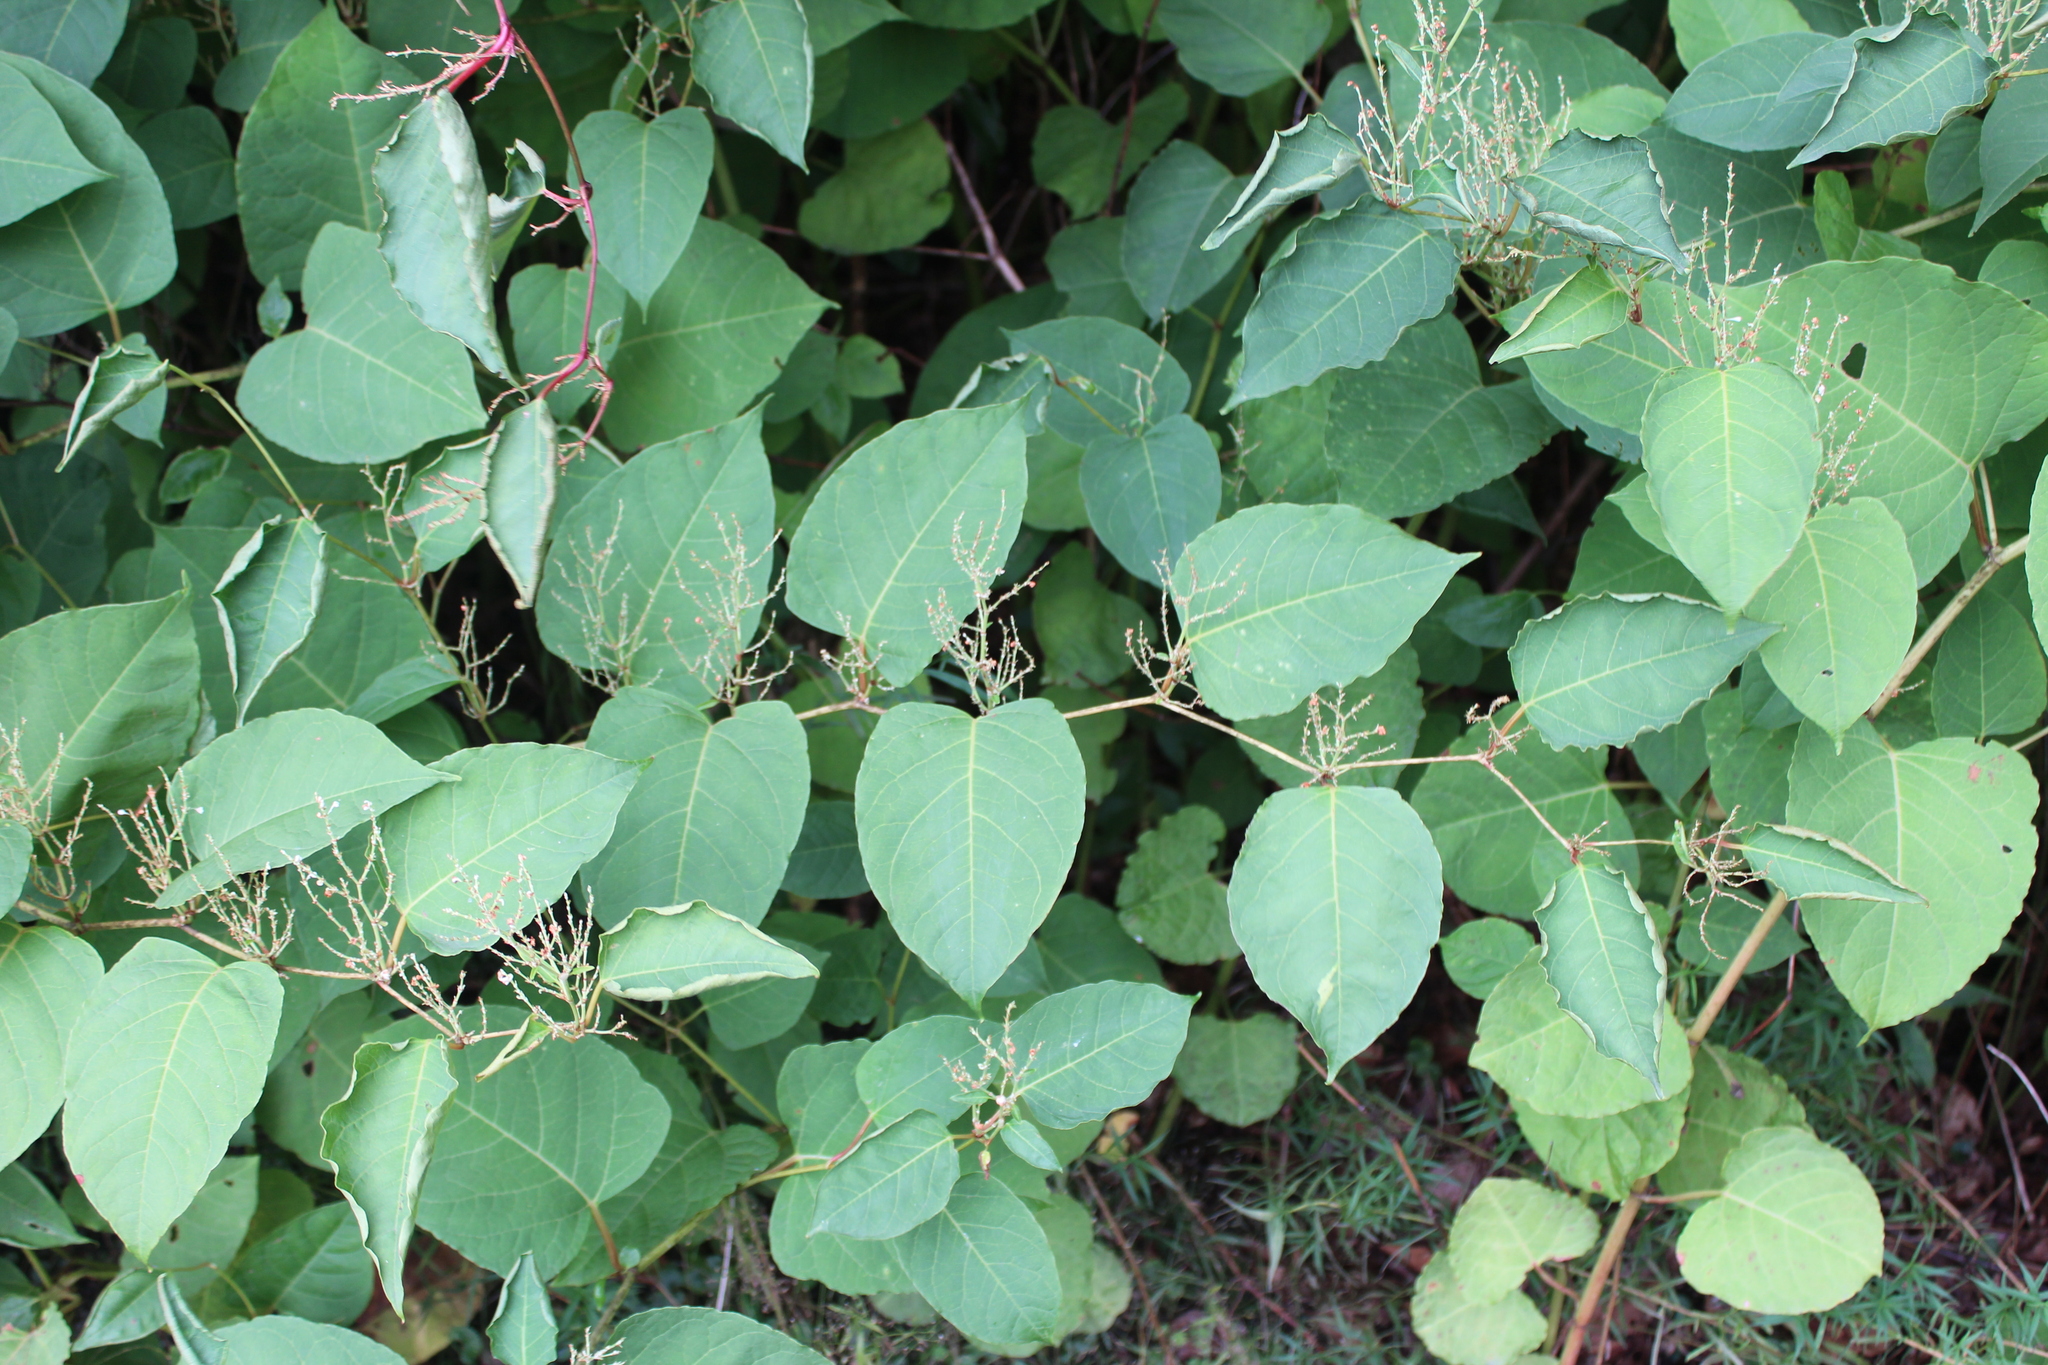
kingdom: Plantae
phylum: Tracheophyta
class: Magnoliopsida
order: Caryophyllales
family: Polygonaceae
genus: Reynoutria
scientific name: Reynoutria japonica
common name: Japanese knotweed
